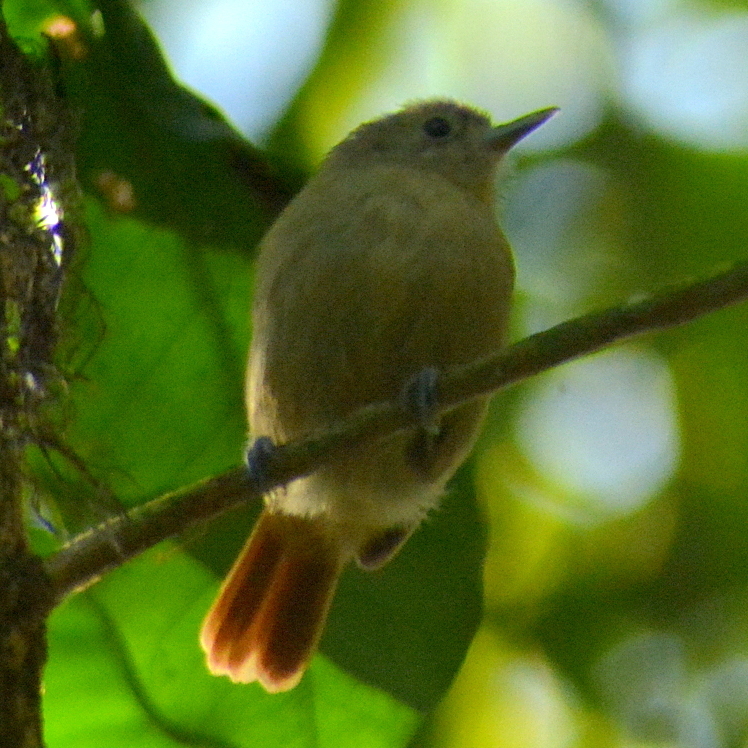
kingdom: Animalia
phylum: Chordata
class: Aves
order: Passeriformes
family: Thamnophilidae
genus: Myrmotherula
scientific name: Myrmotherula unicolor
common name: Unicolored antwren
